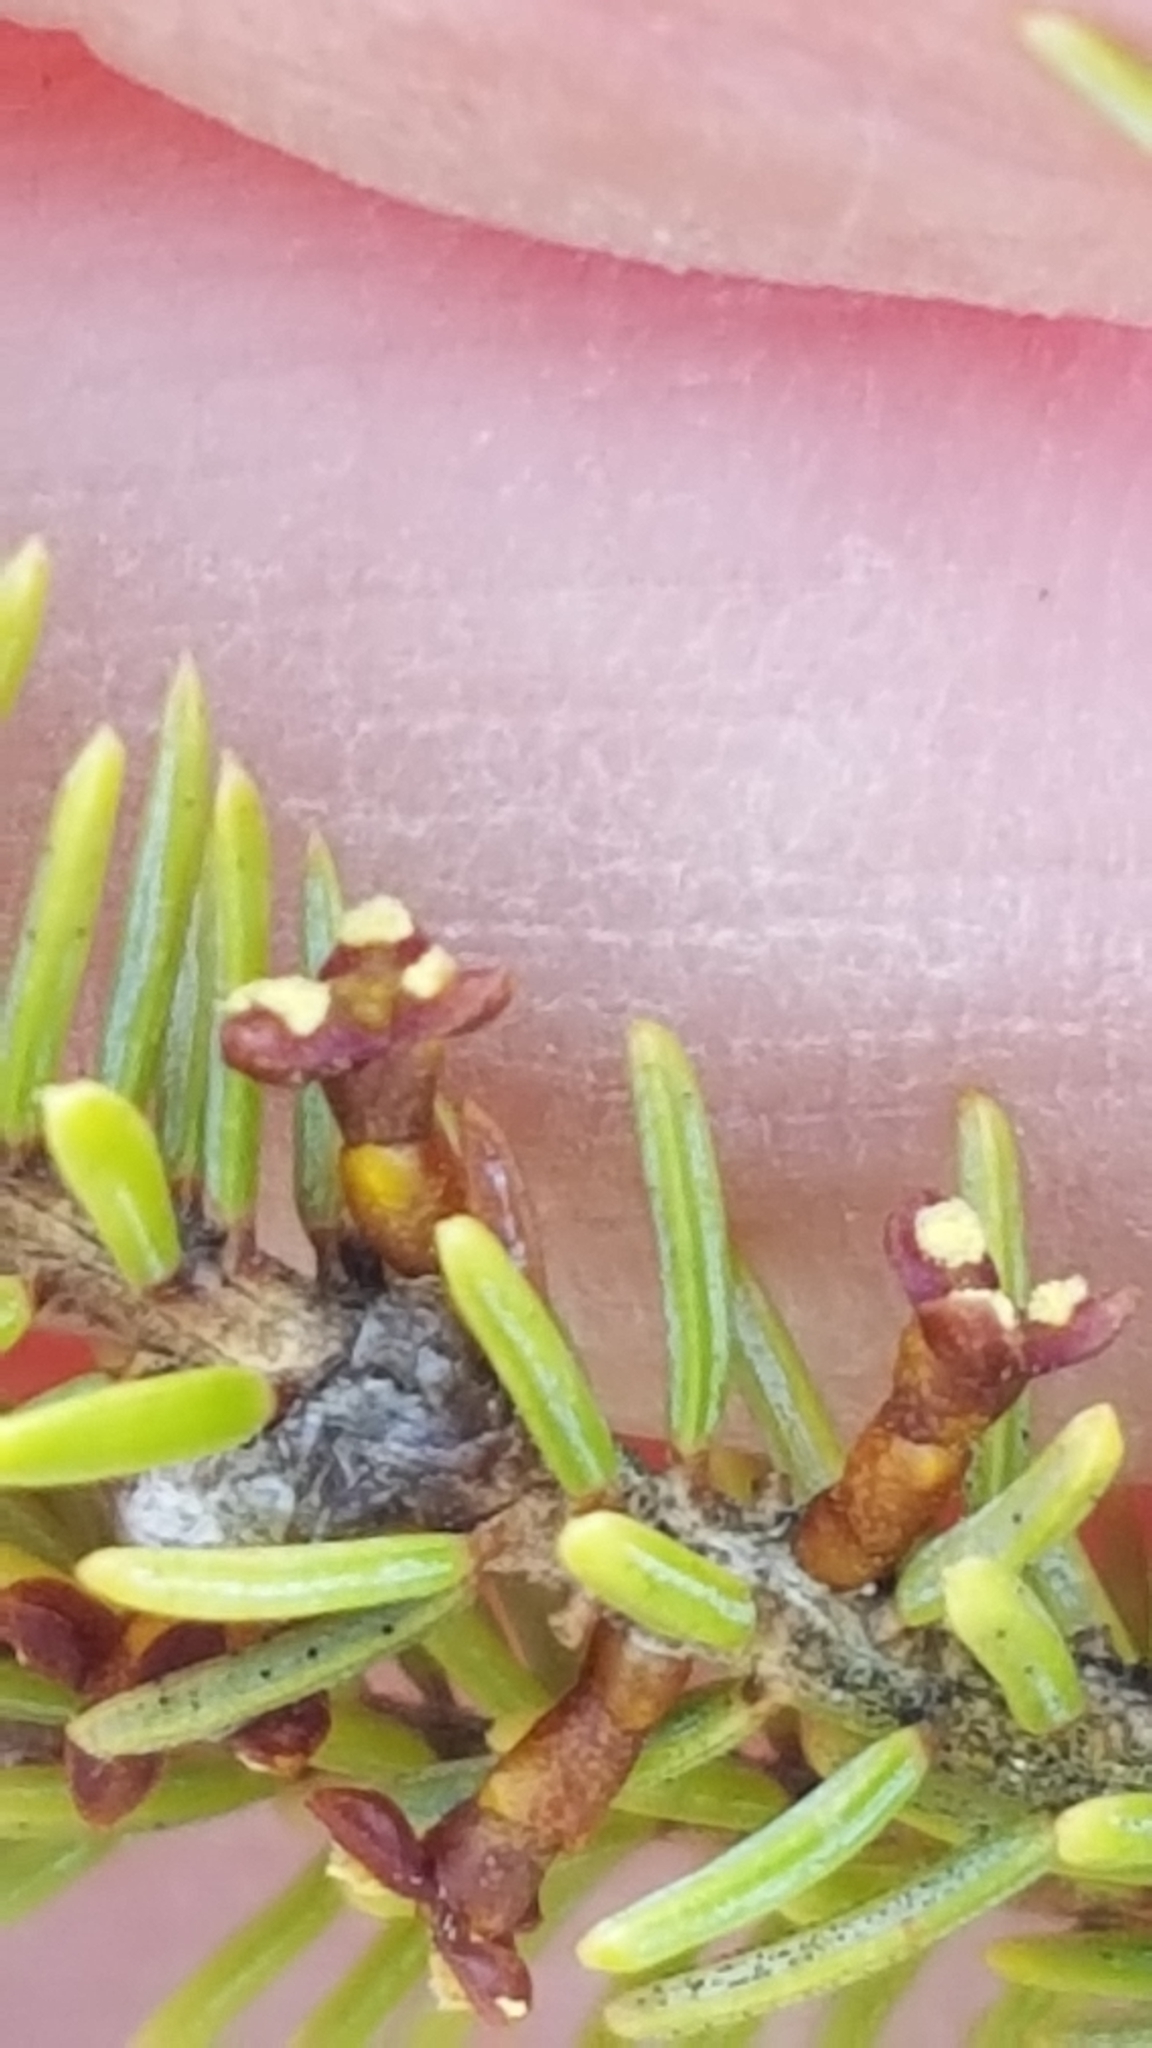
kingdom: Plantae
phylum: Tracheophyta
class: Magnoliopsida
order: Santalales
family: Viscaceae
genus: Arceuthobium
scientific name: Arceuthobium pusillum
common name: Dwarf-mistletoe
